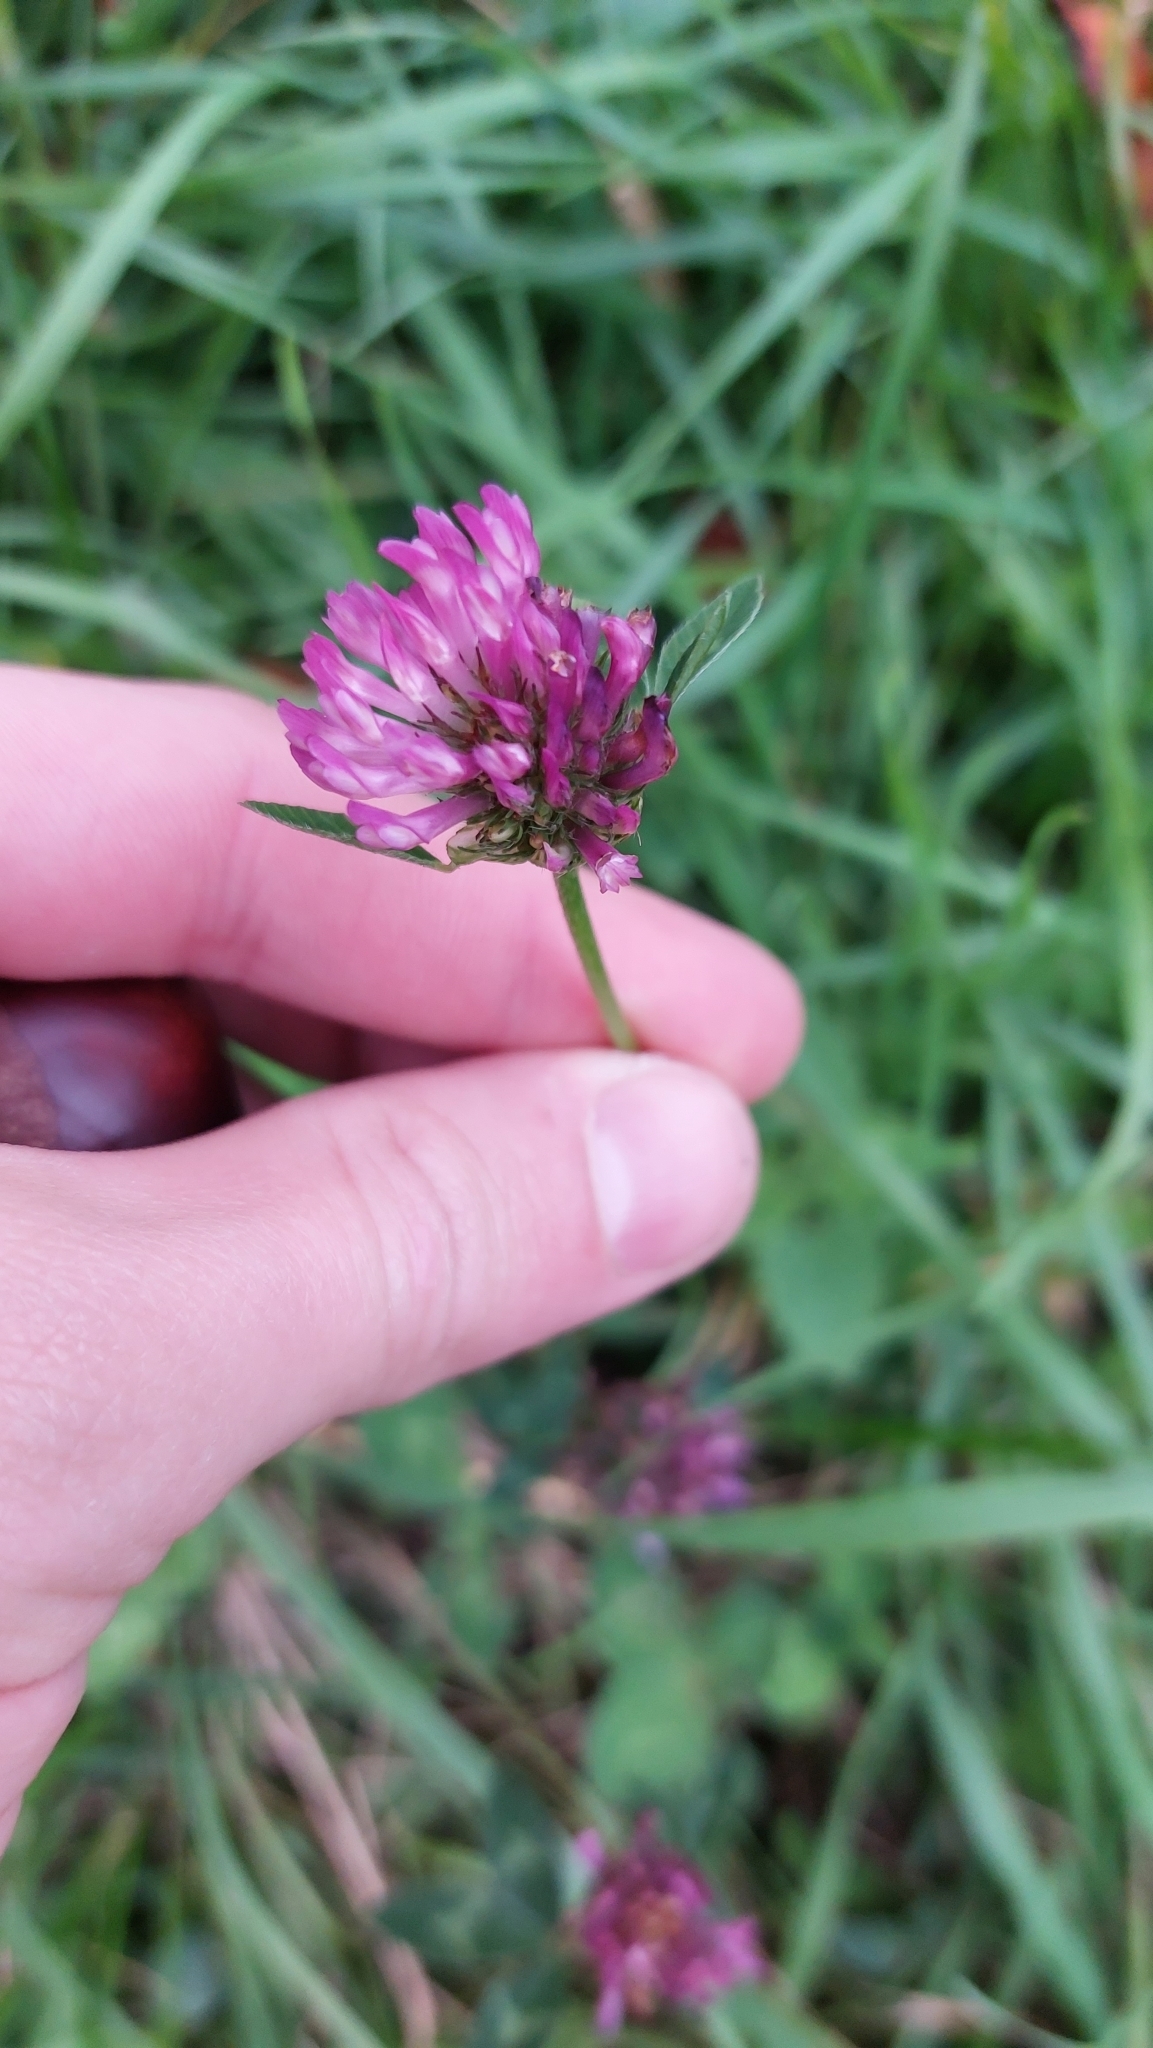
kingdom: Plantae
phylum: Tracheophyta
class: Magnoliopsida
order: Fabales
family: Fabaceae
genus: Trifolium
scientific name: Trifolium pratense
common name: Red clover
